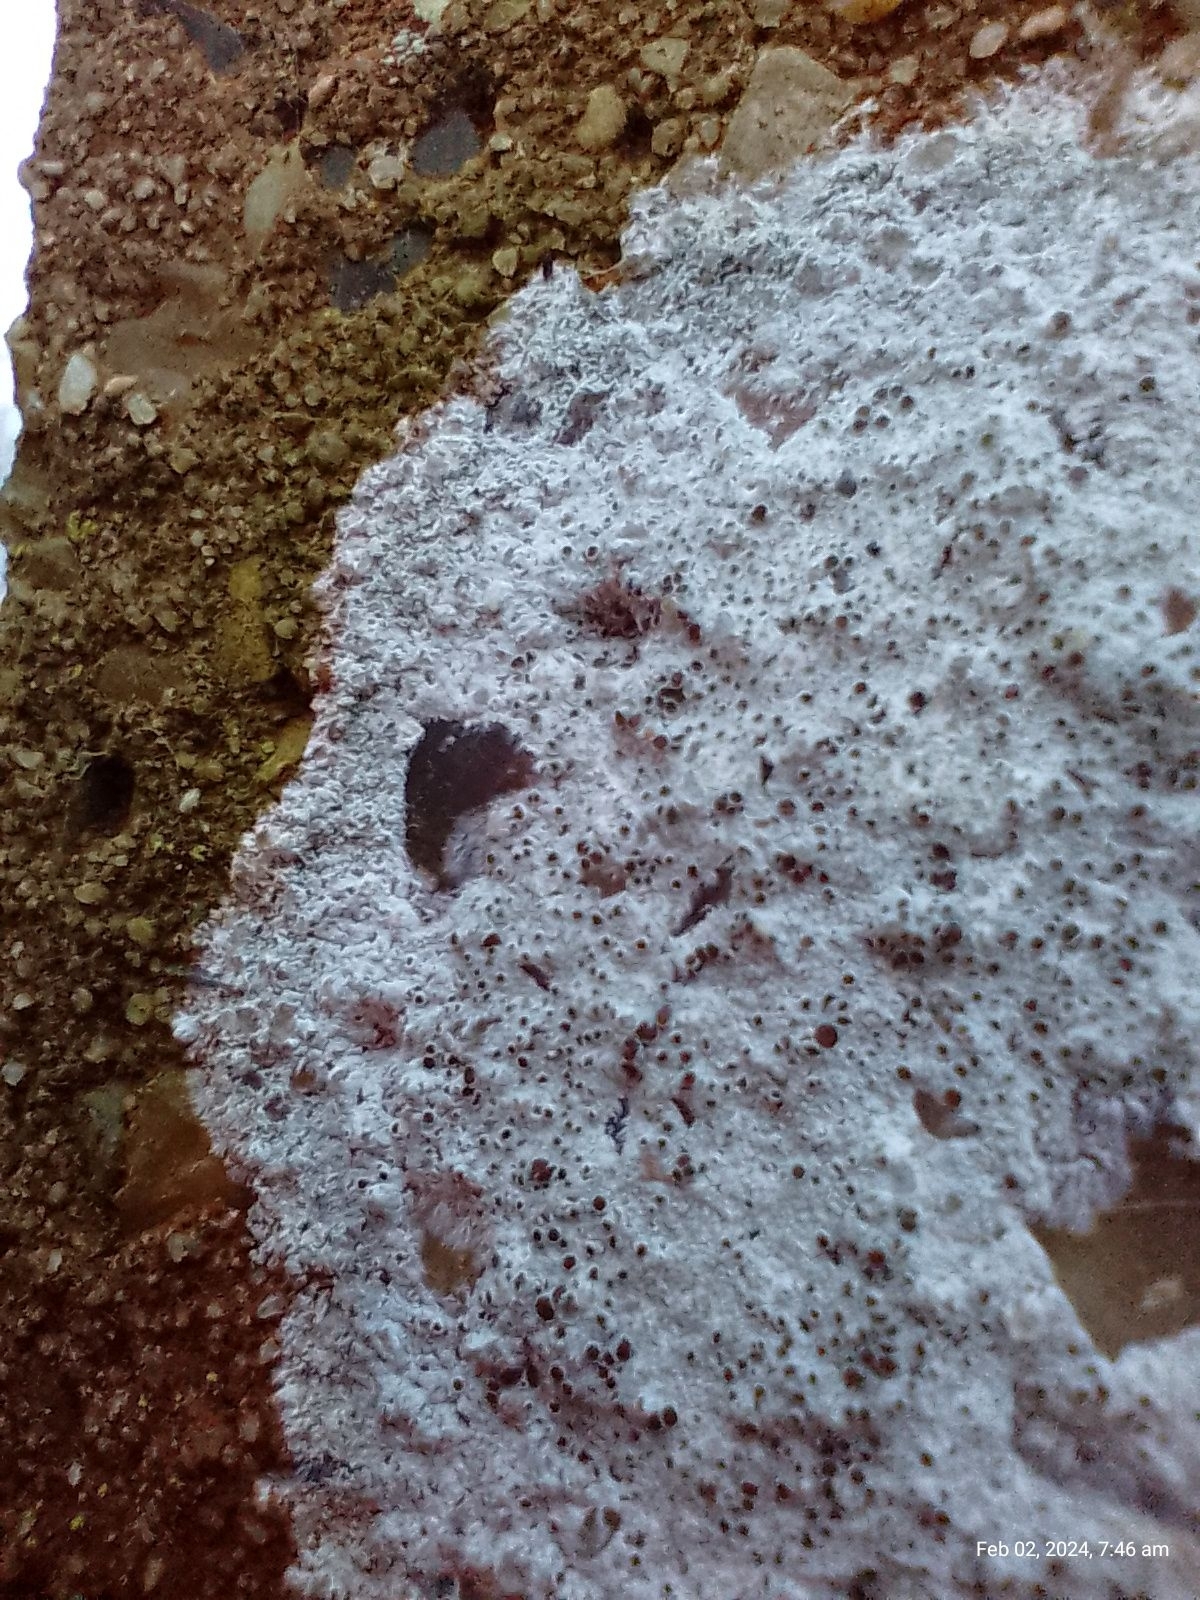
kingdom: Fungi
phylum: Ascomycota
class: Lecanoromycetes
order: Lecanorales
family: Lecanoraceae
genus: Lecanora
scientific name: Lecanora campestris
